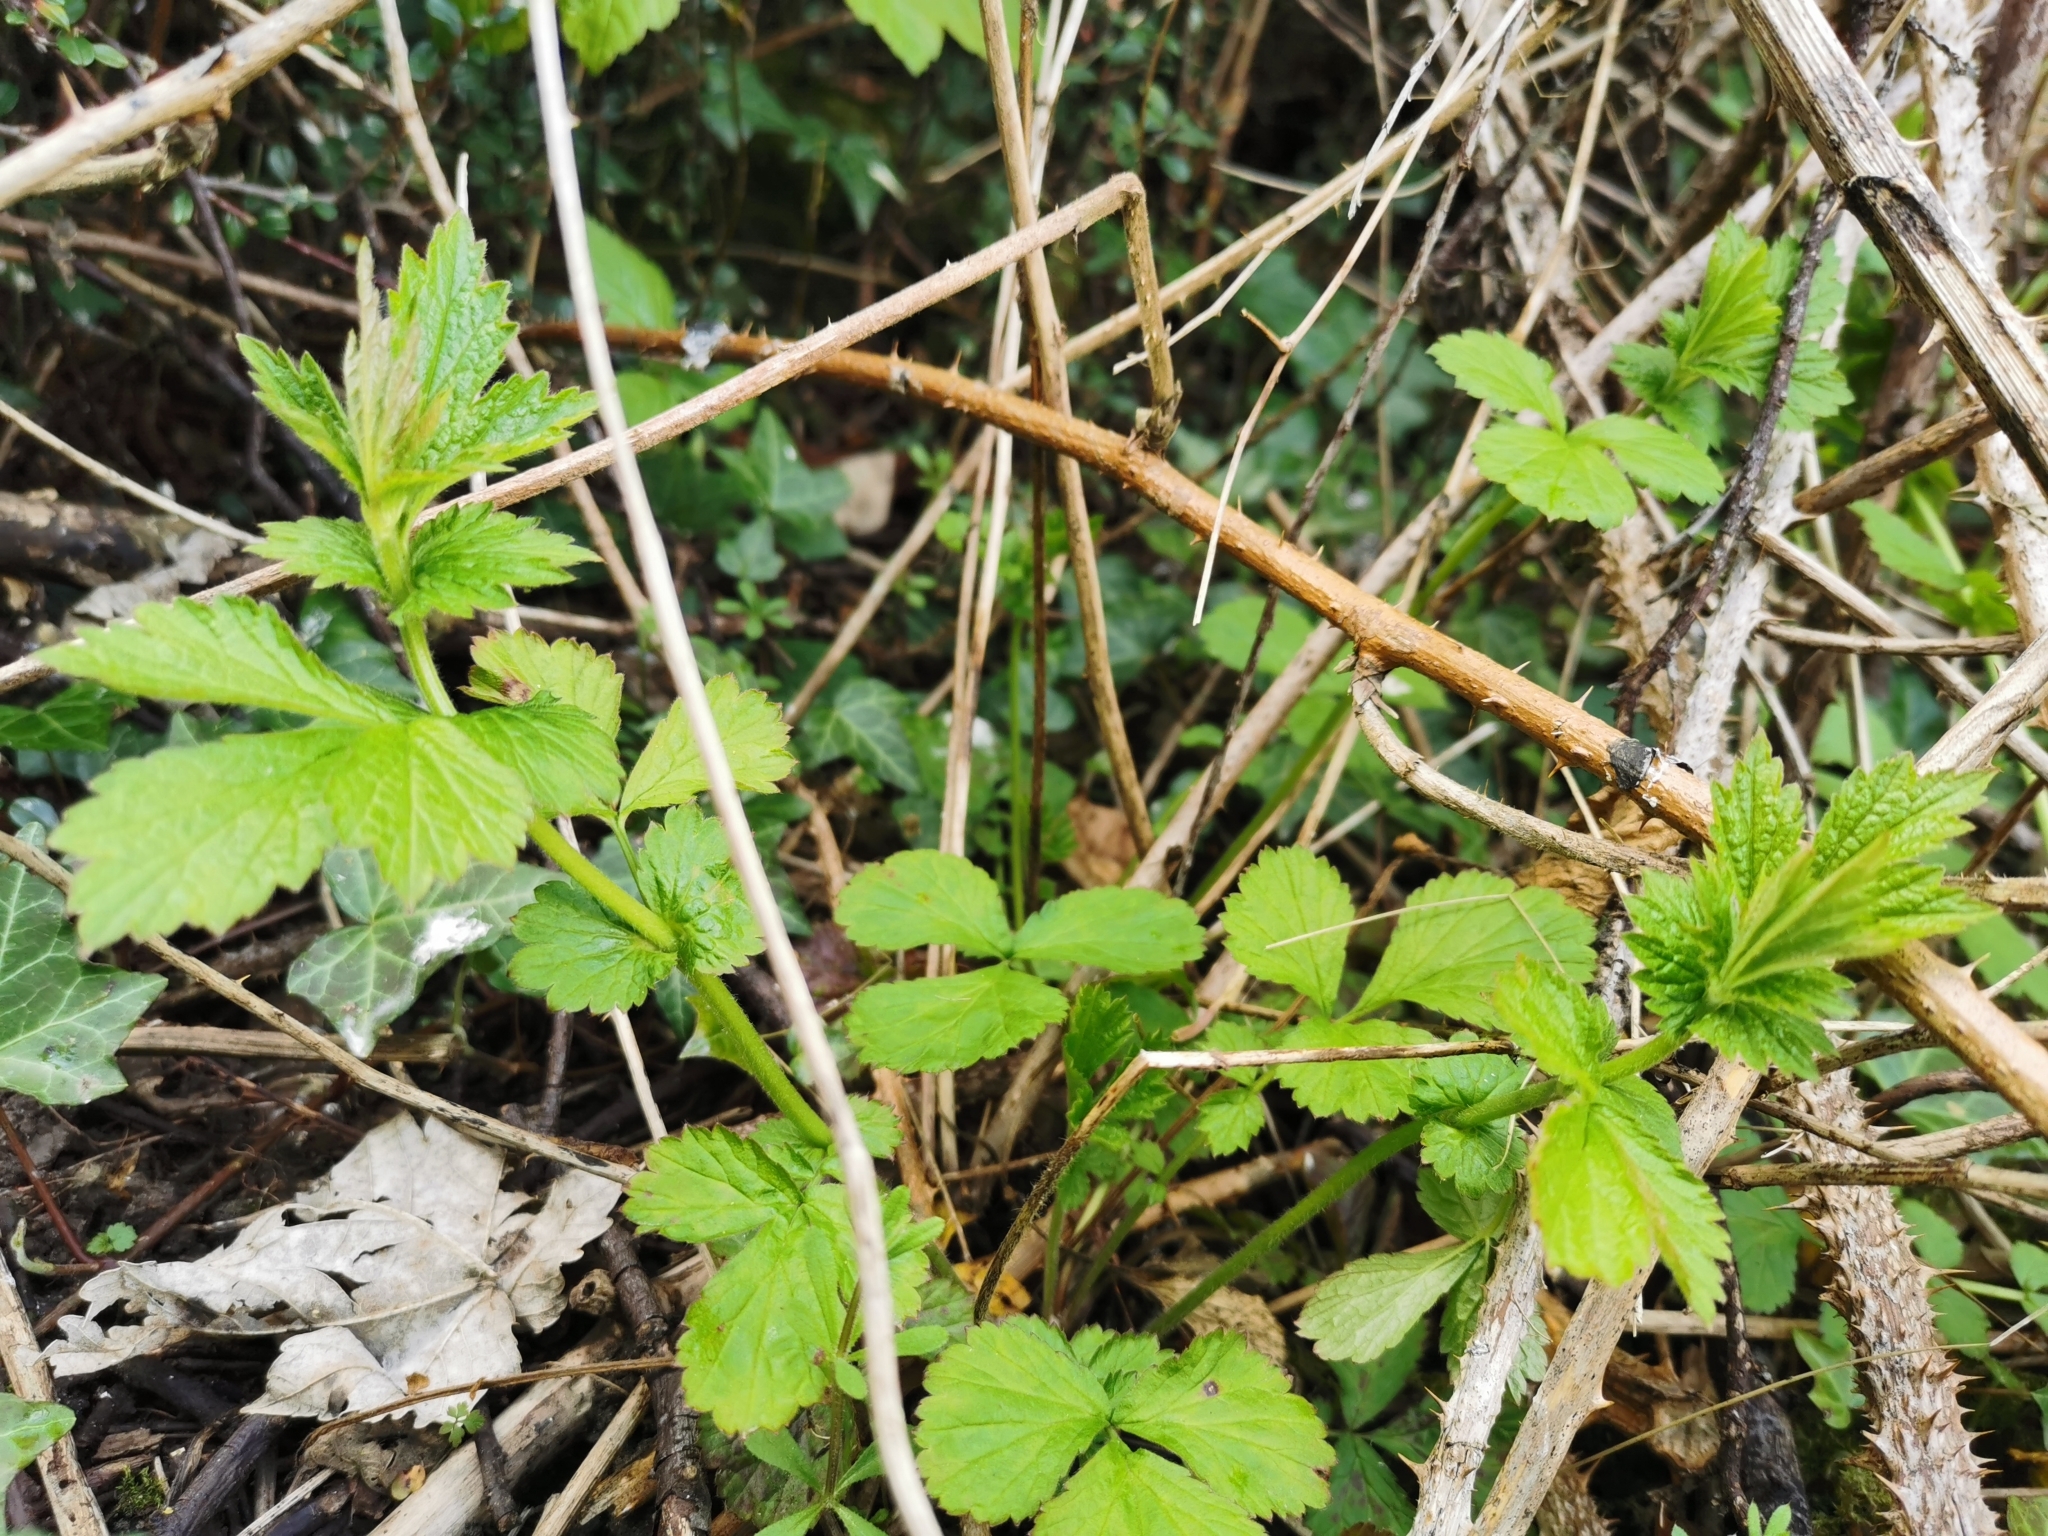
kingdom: Plantae
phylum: Tracheophyta
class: Magnoliopsida
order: Rosales
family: Rosaceae
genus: Geum
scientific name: Geum urbanum
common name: Wood avens
